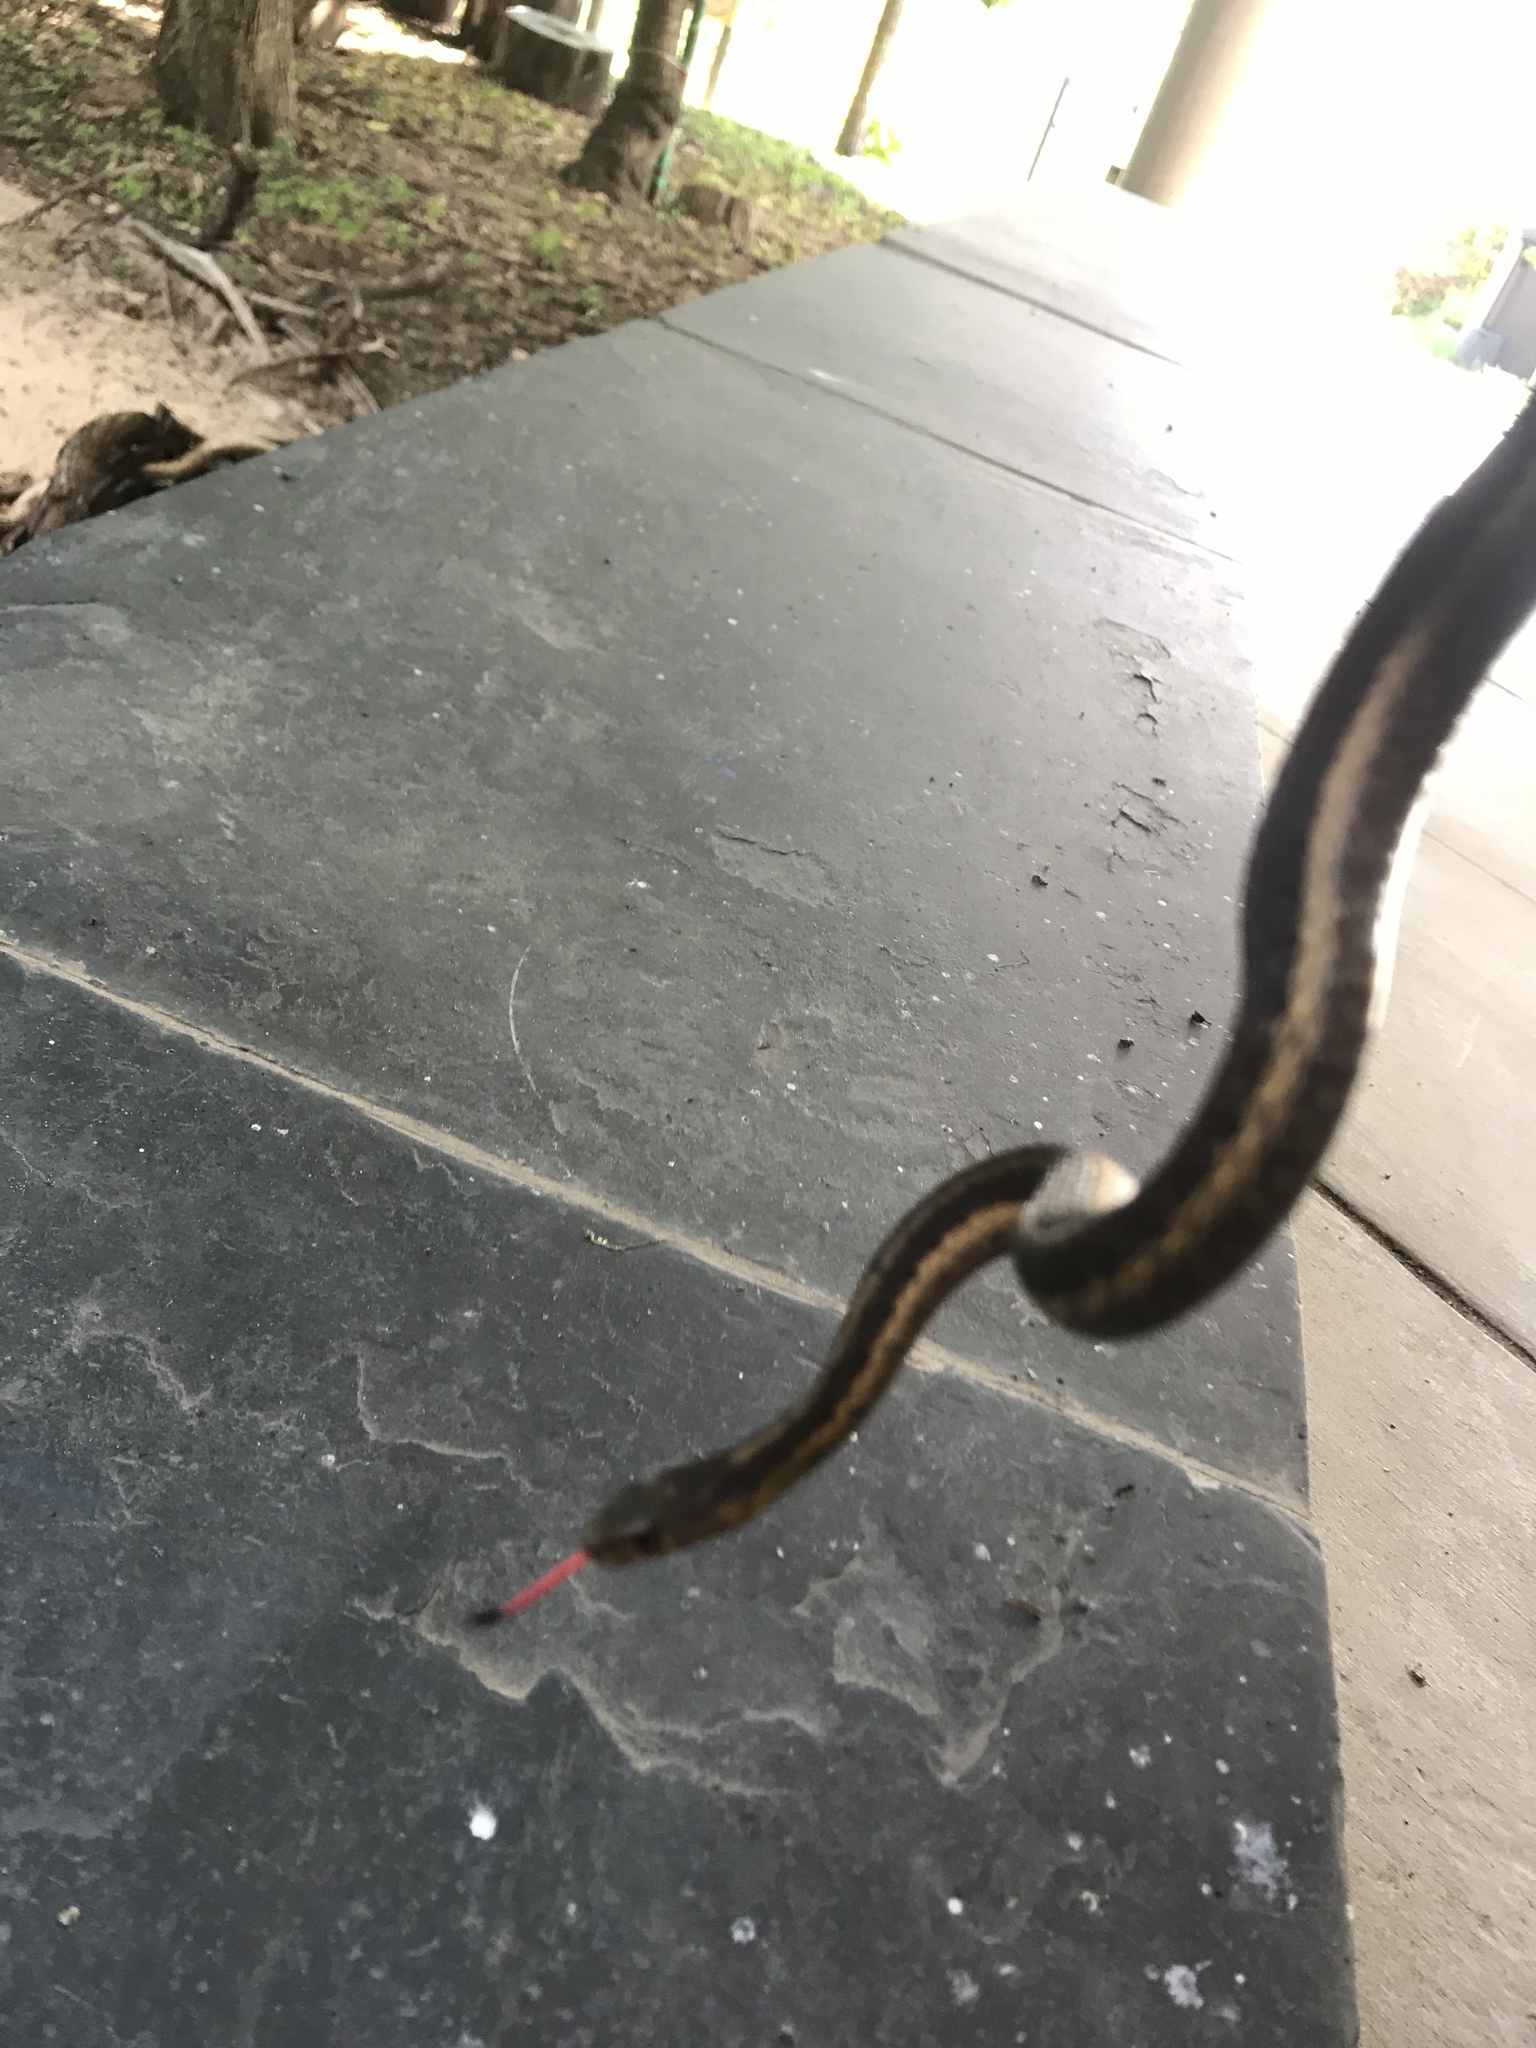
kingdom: Animalia
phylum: Chordata
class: Squamata
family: Colubridae
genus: Thamnophis
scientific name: Thamnophis sirtalis
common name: Common garter snake
